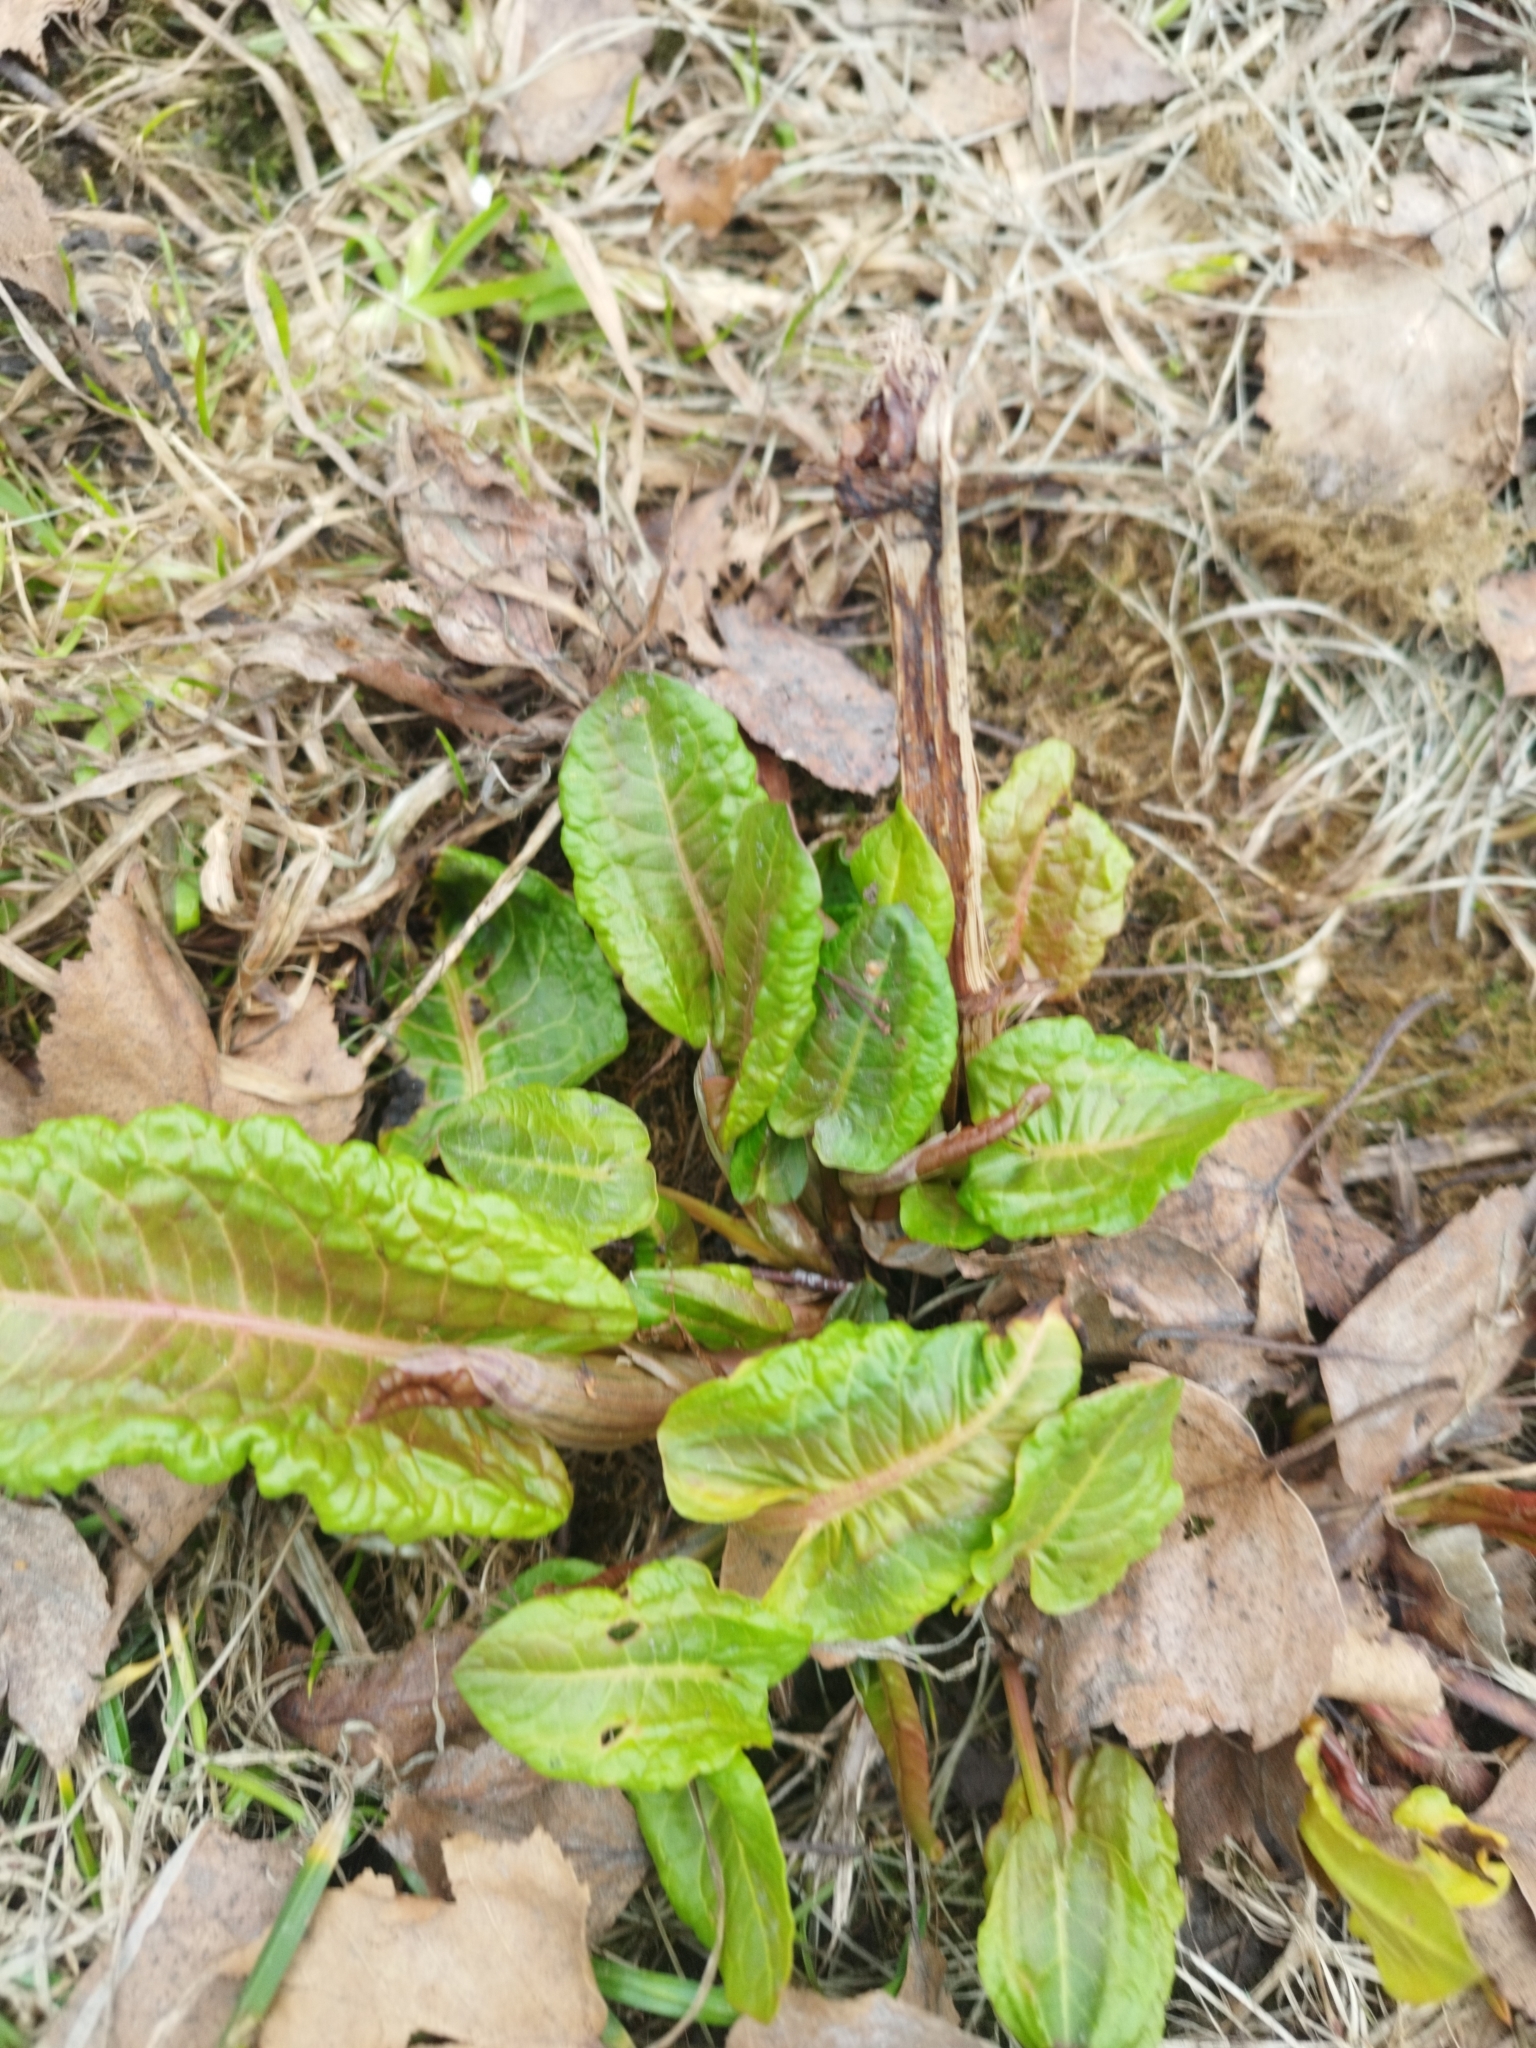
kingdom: Plantae
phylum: Tracheophyta
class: Magnoliopsida
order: Caryophyllales
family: Polygonaceae
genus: Rumex
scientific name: Rumex obtusifolius
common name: Bitter dock
